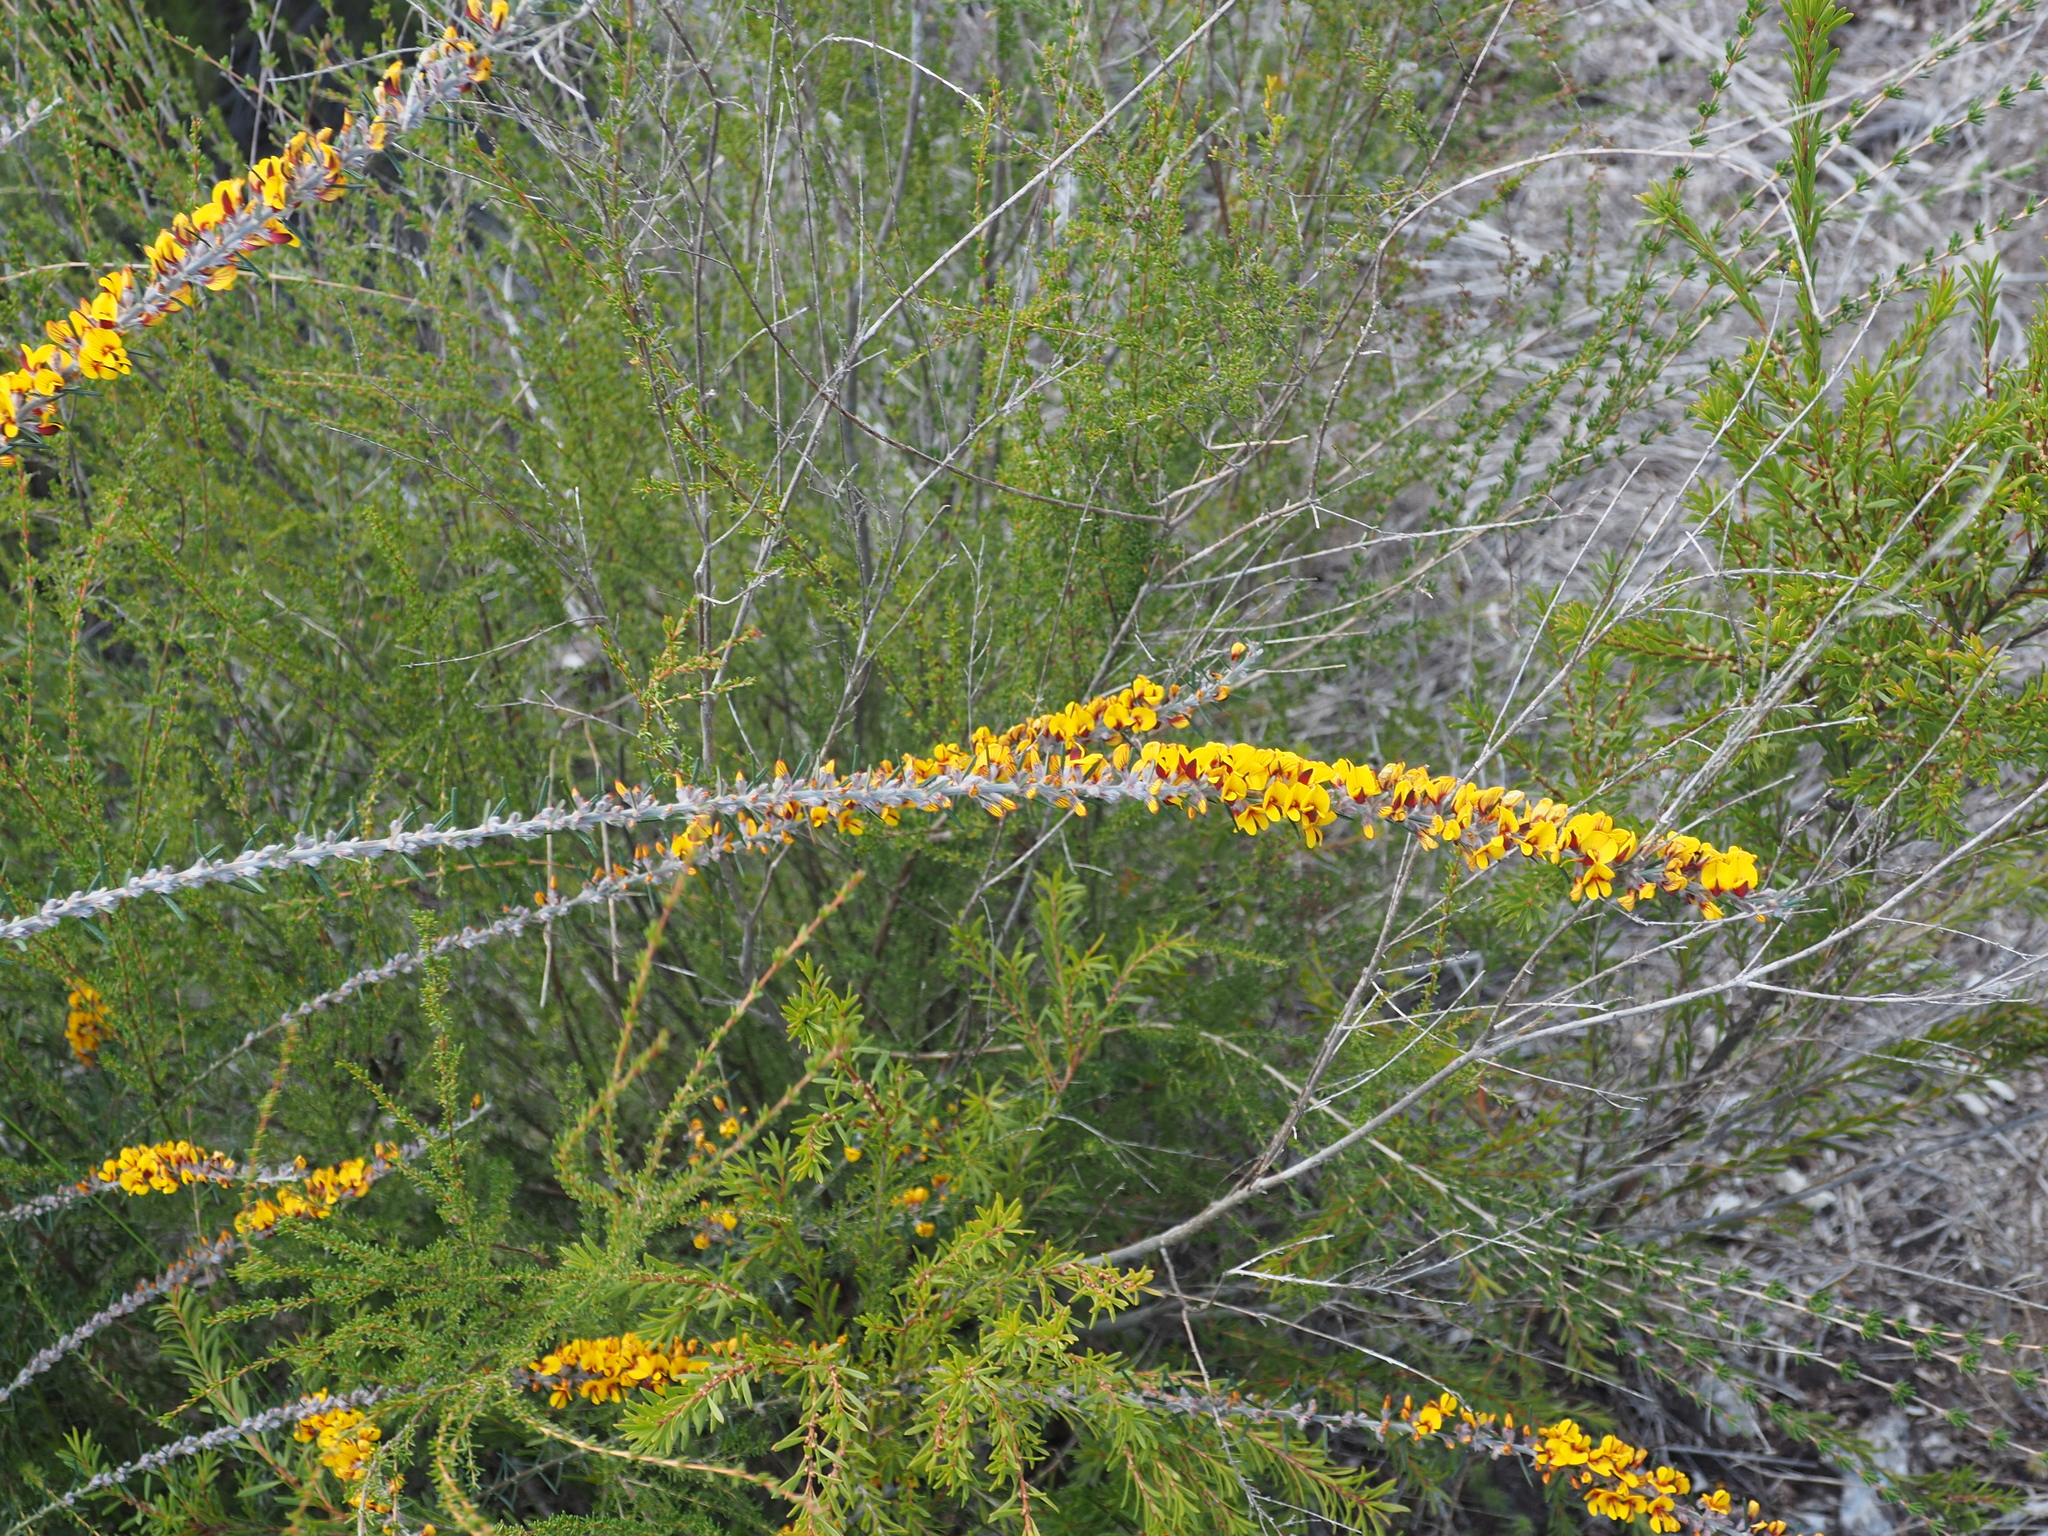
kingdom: Plantae
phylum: Tracheophyta
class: Magnoliopsida
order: Fabales
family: Fabaceae
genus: Aotus
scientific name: Aotus passerinoides
